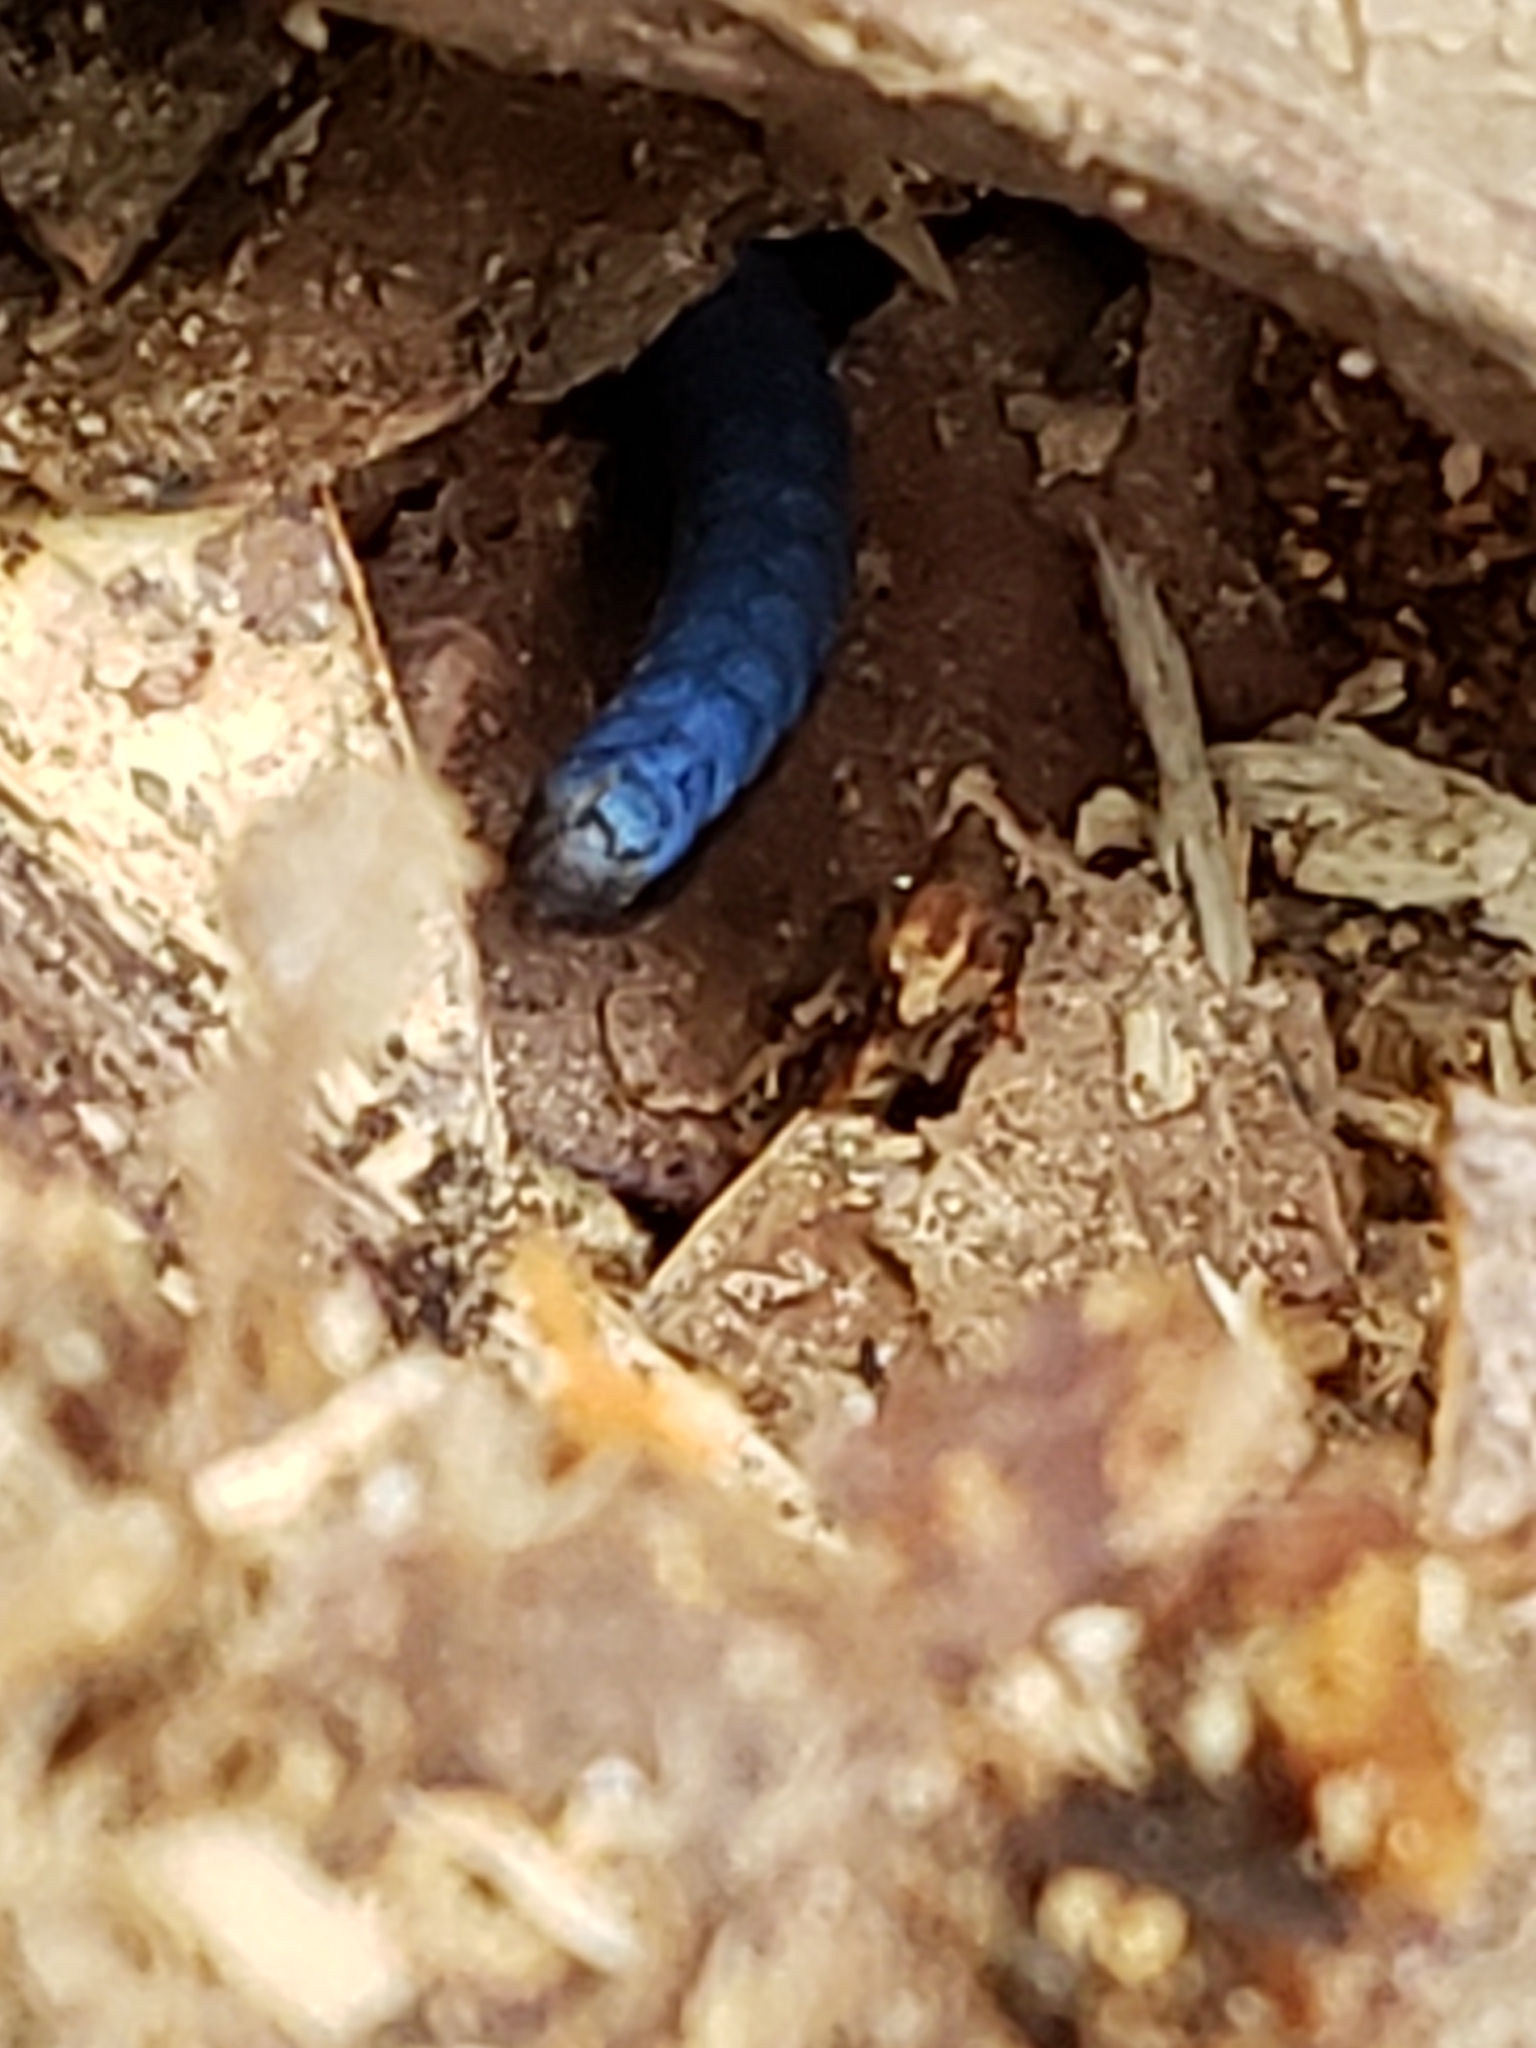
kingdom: Animalia
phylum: Chordata
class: Squamata
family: Scincidae
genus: Plestiodon
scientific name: Plestiodon
